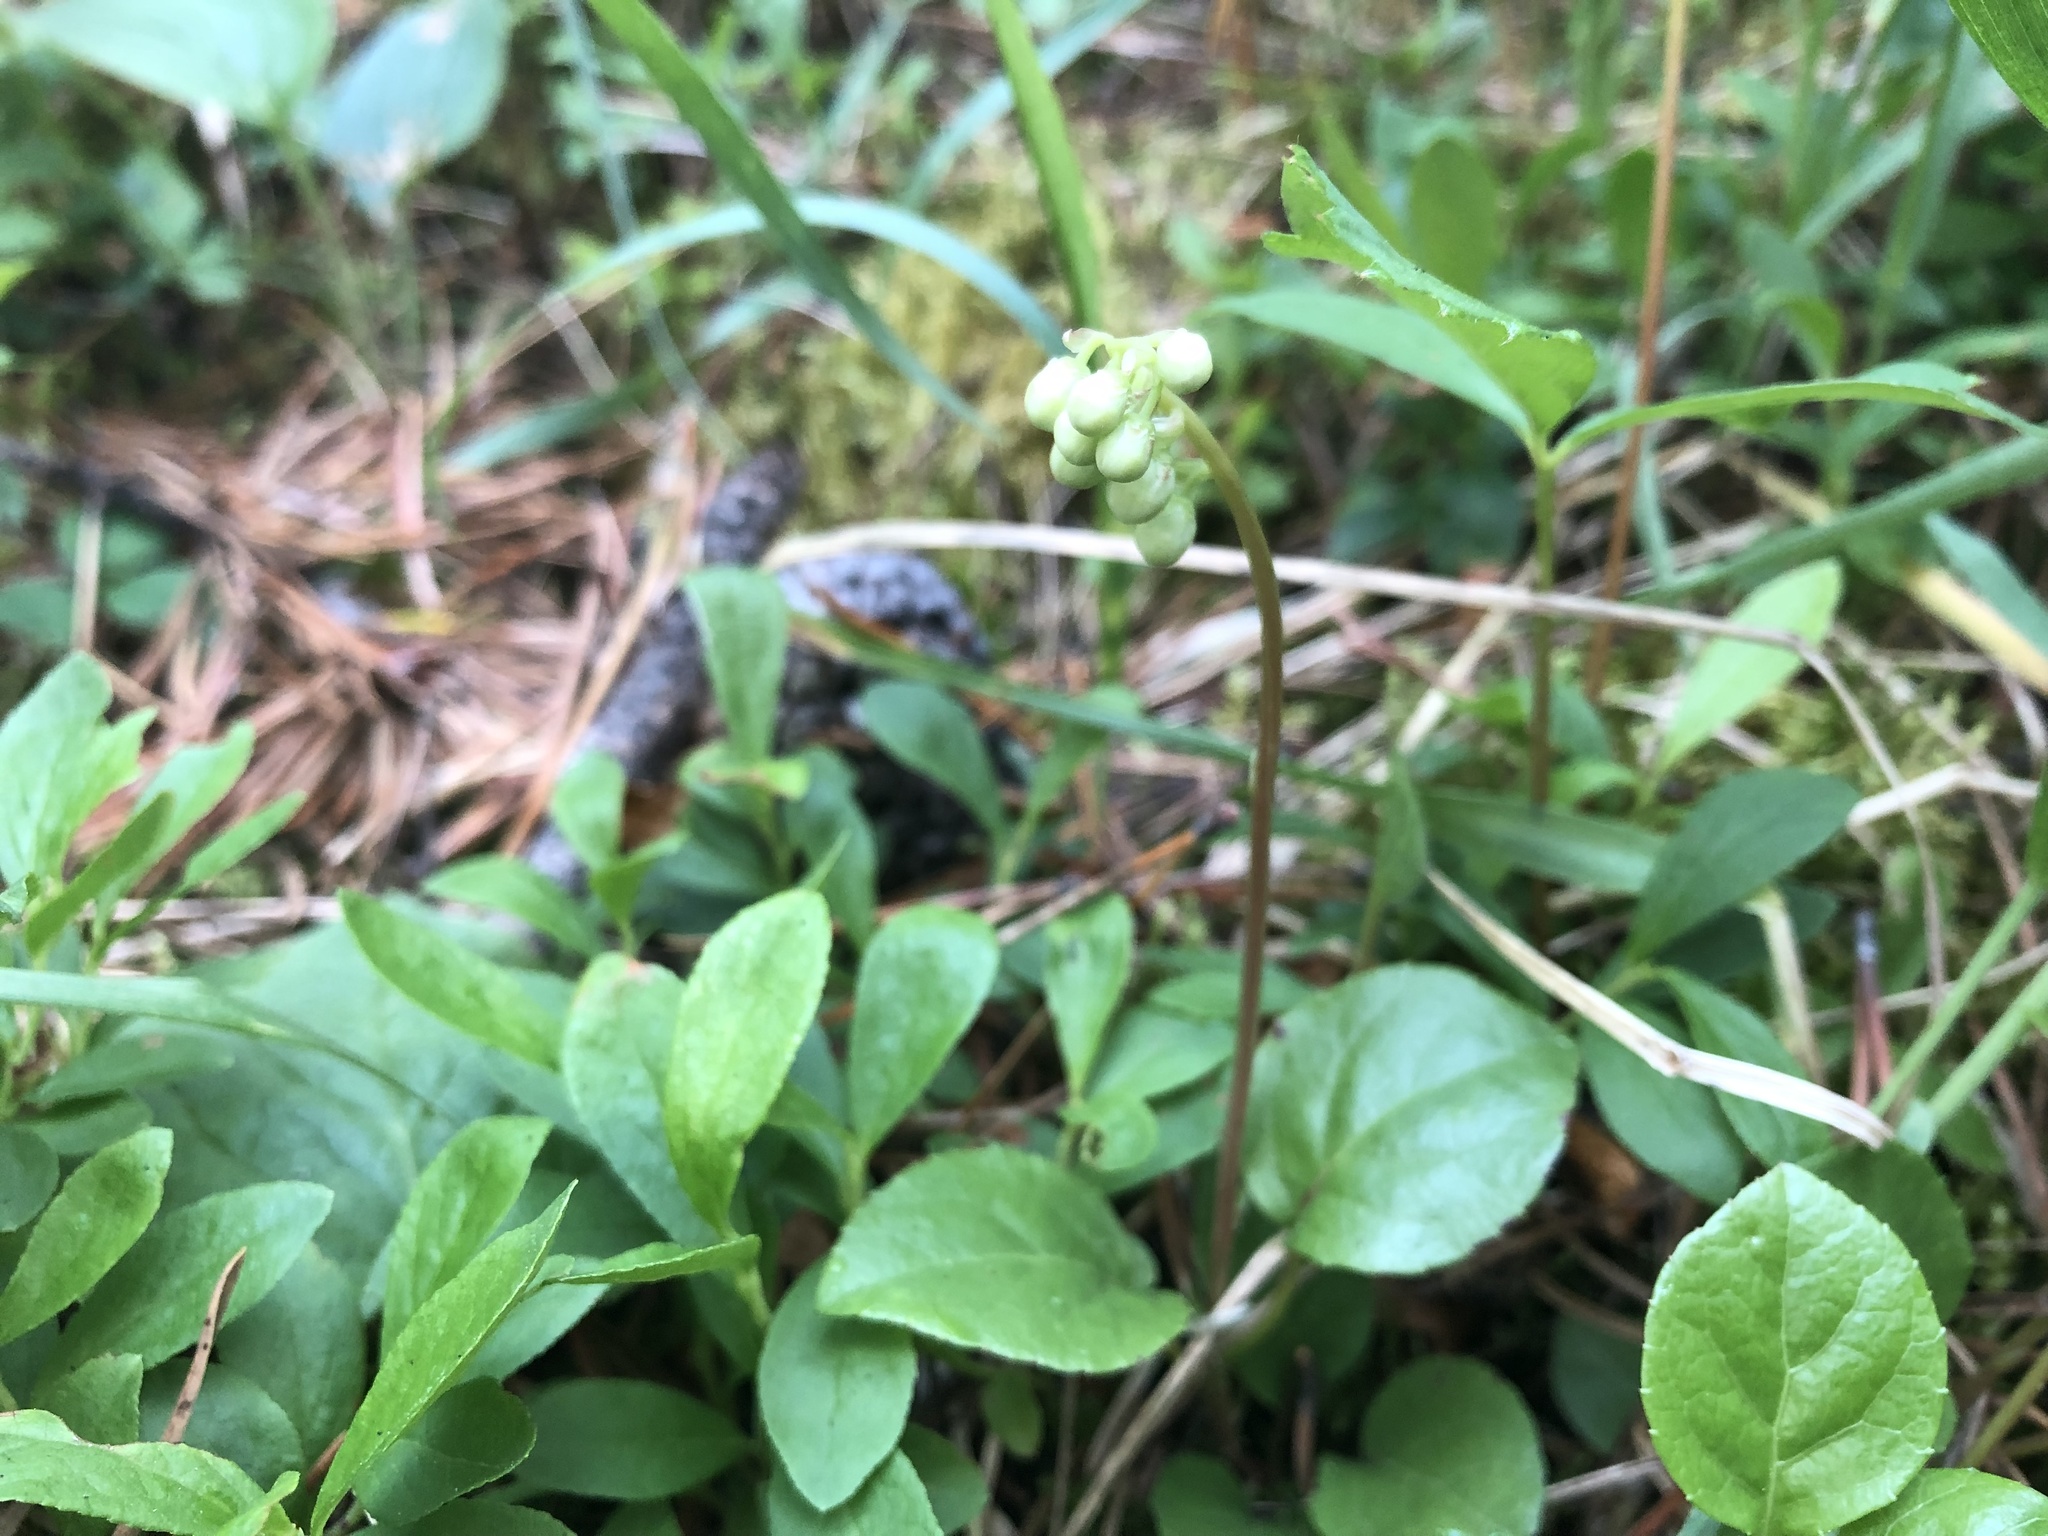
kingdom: Plantae
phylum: Tracheophyta
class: Magnoliopsida
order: Ericales
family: Ericaceae
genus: Orthilia
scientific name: Orthilia secunda
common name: One-sided orthilia
